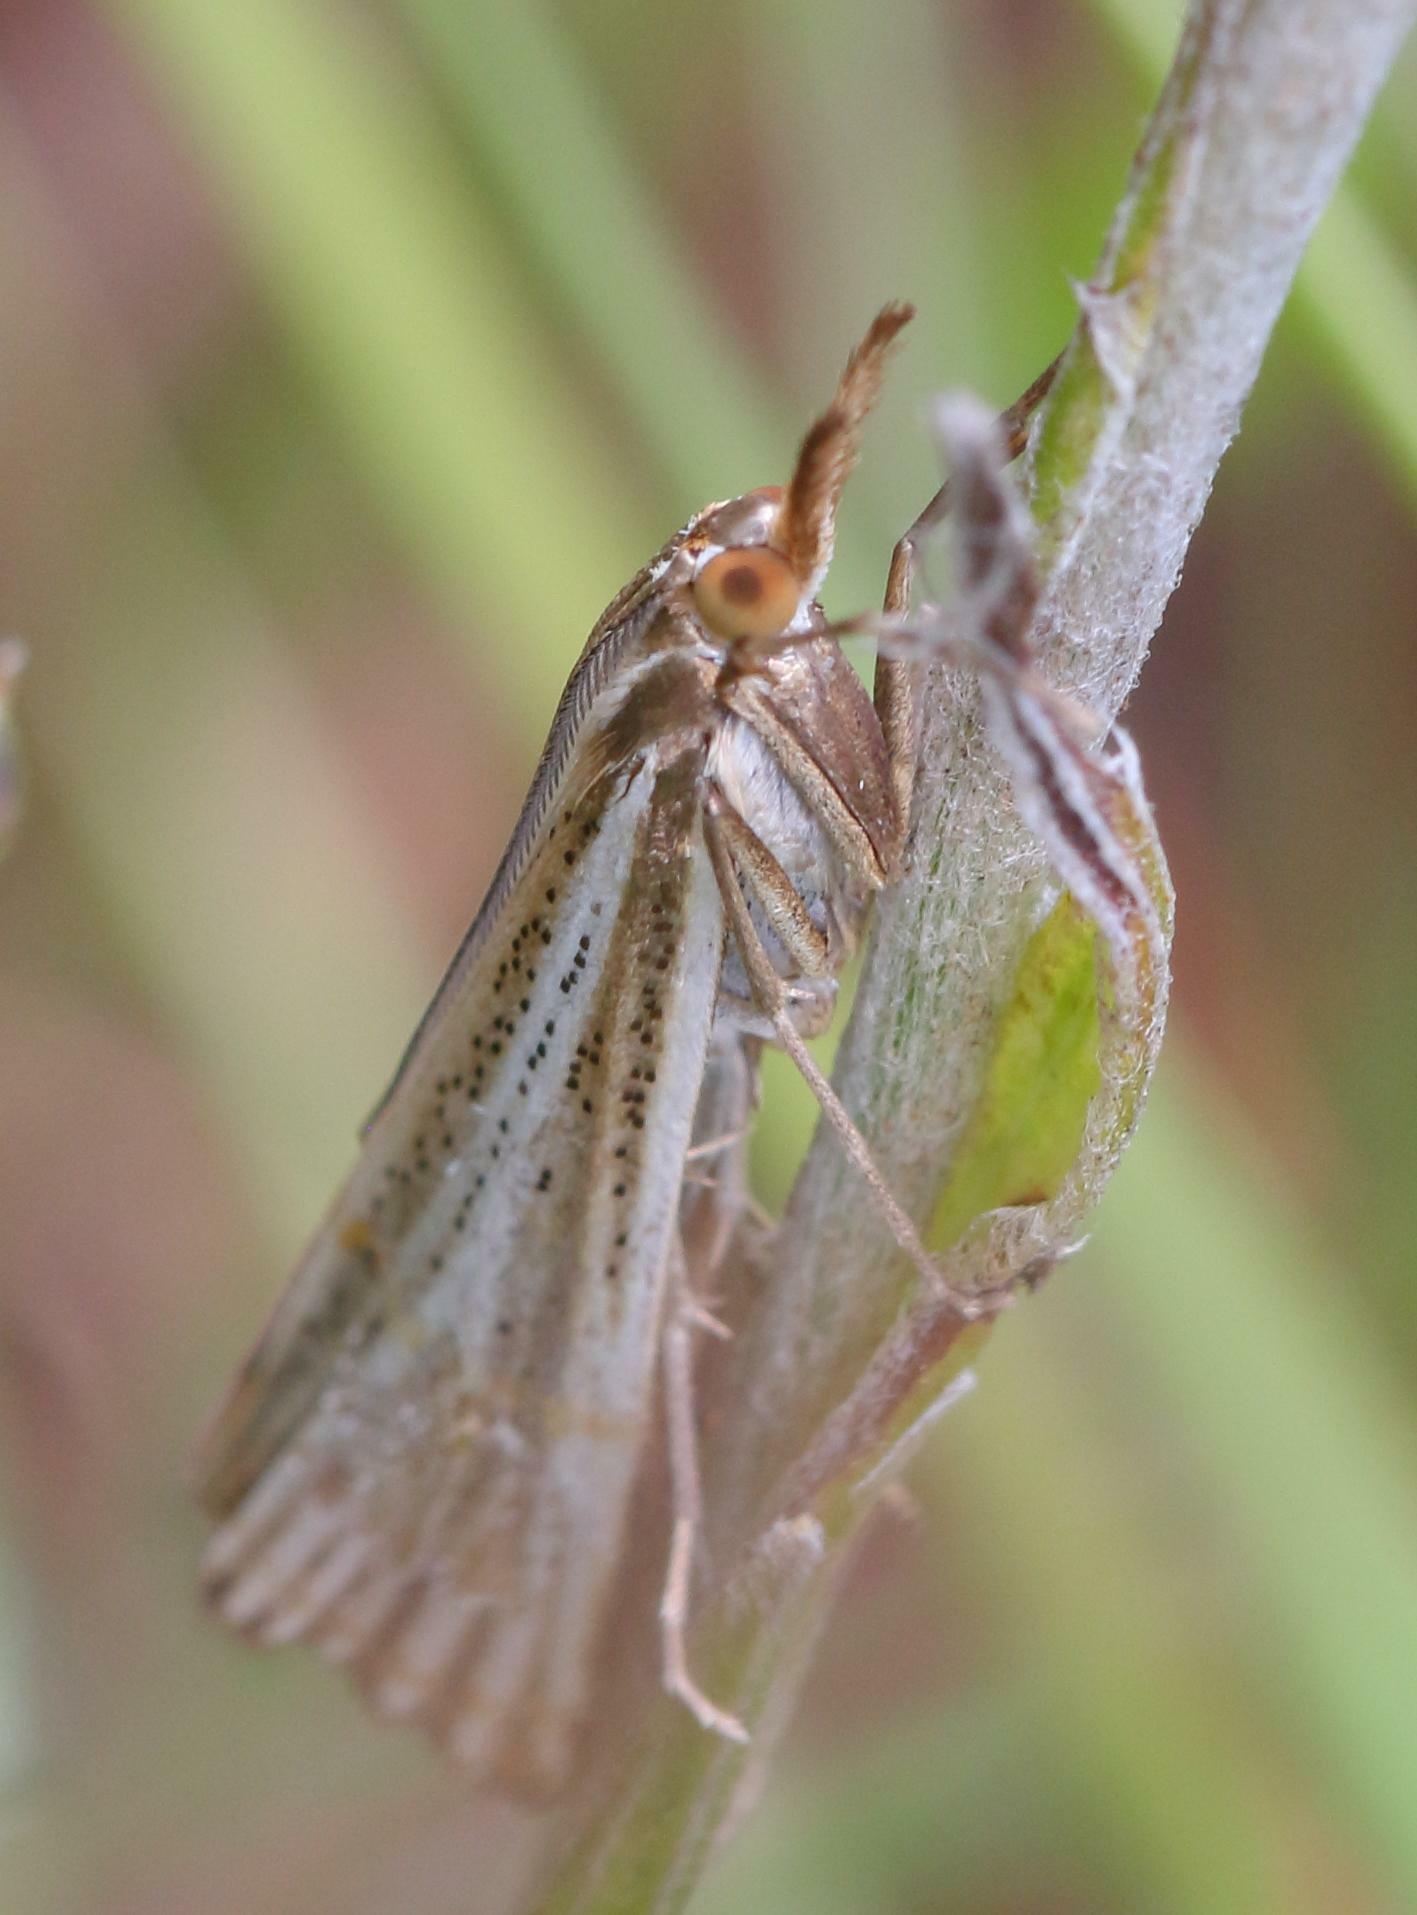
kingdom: Animalia
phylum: Arthropoda
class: Insecta
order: Lepidoptera
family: Crambidae
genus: Conotalis
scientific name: Conotalis nigrisquamalis
